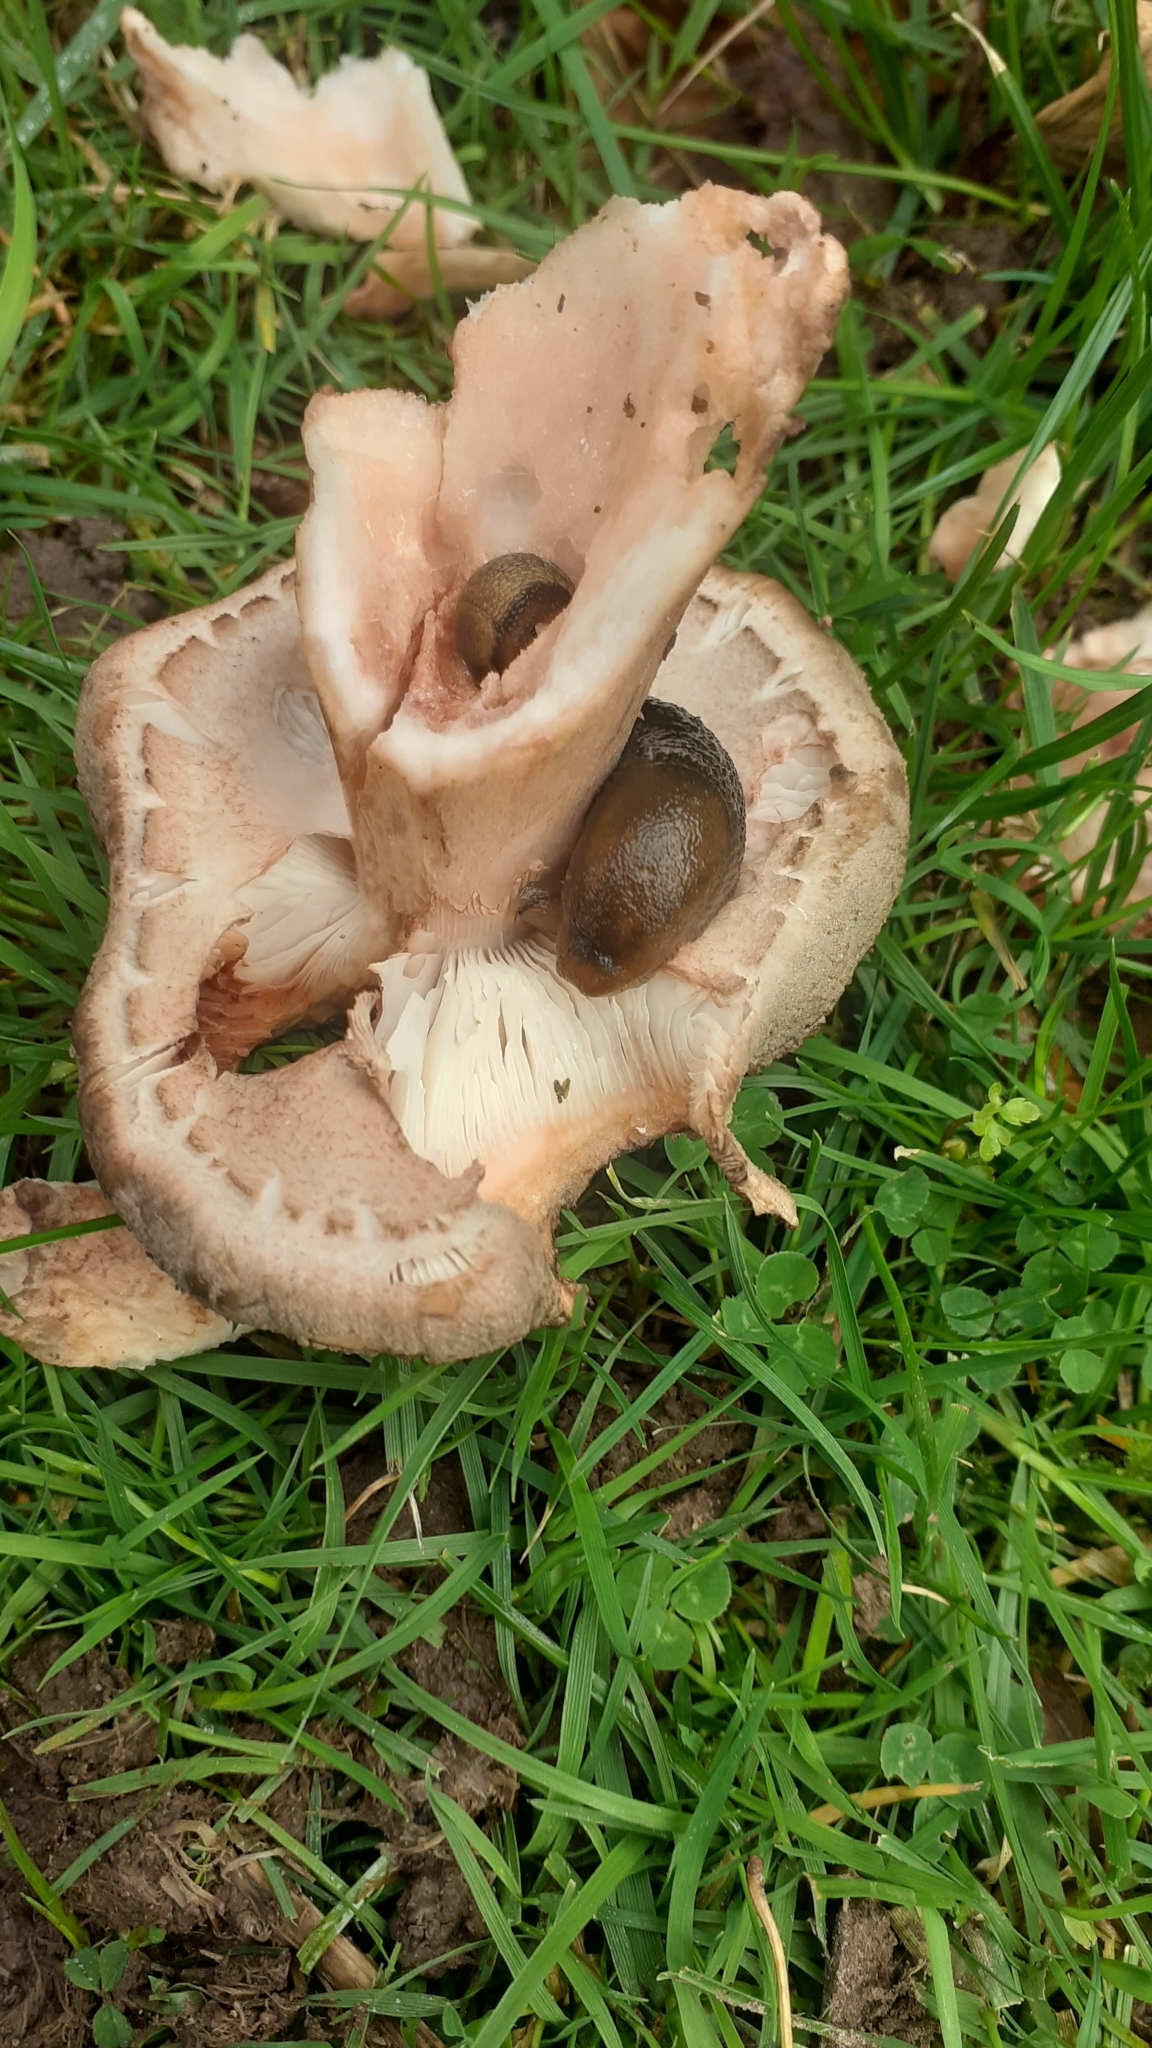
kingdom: Fungi
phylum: Basidiomycota
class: Agaricomycetes
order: Agaricales
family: Amanitaceae
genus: Amanita
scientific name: Amanita rubescens
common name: Blusher
